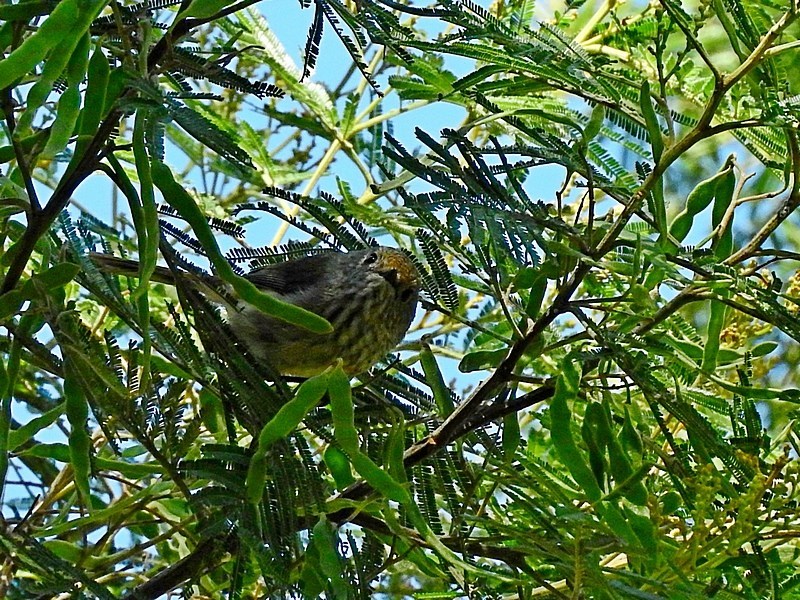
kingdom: Animalia
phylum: Chordata
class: Aves
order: Passeriformes
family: Acanthizidae
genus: Acanthiza
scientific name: Acanthiza pusilla
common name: Brown thornbill
